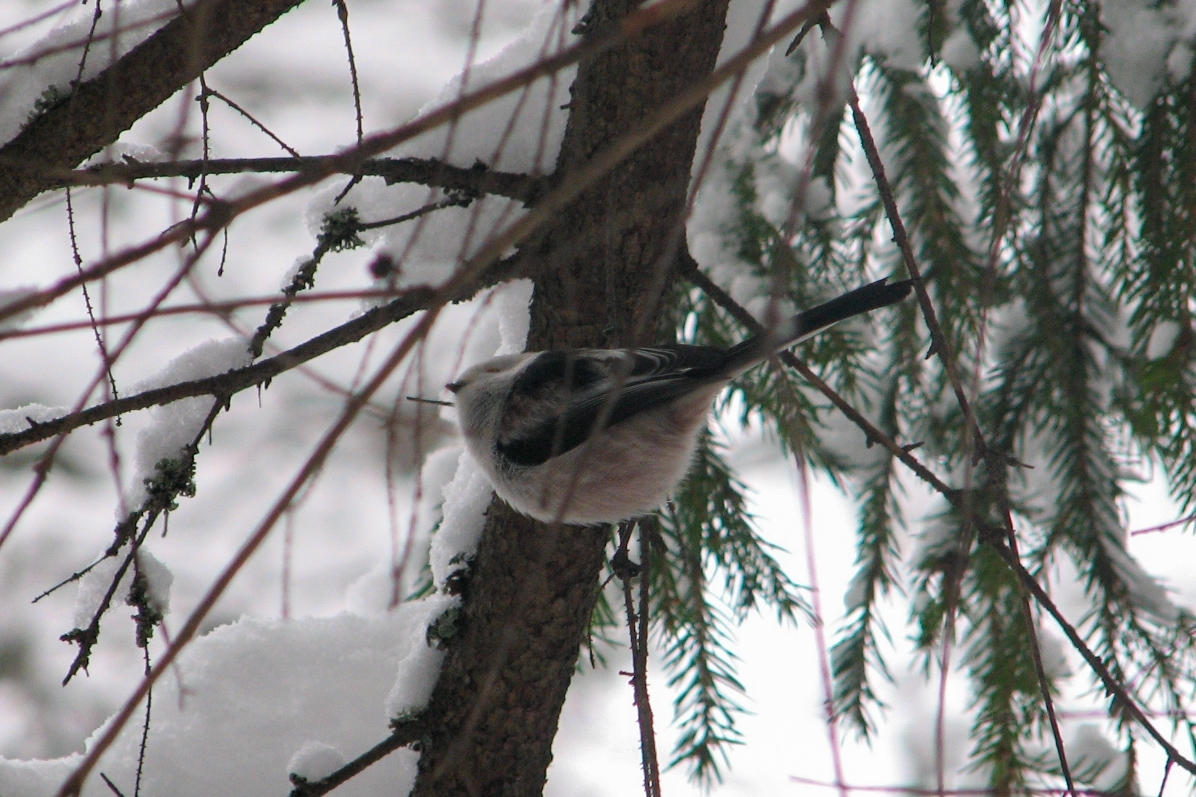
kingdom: Animalia
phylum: Chordata
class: Aves
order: Passeriformes
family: Aegithalidae
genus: Aegithalos
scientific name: Aegithalos caudatus
